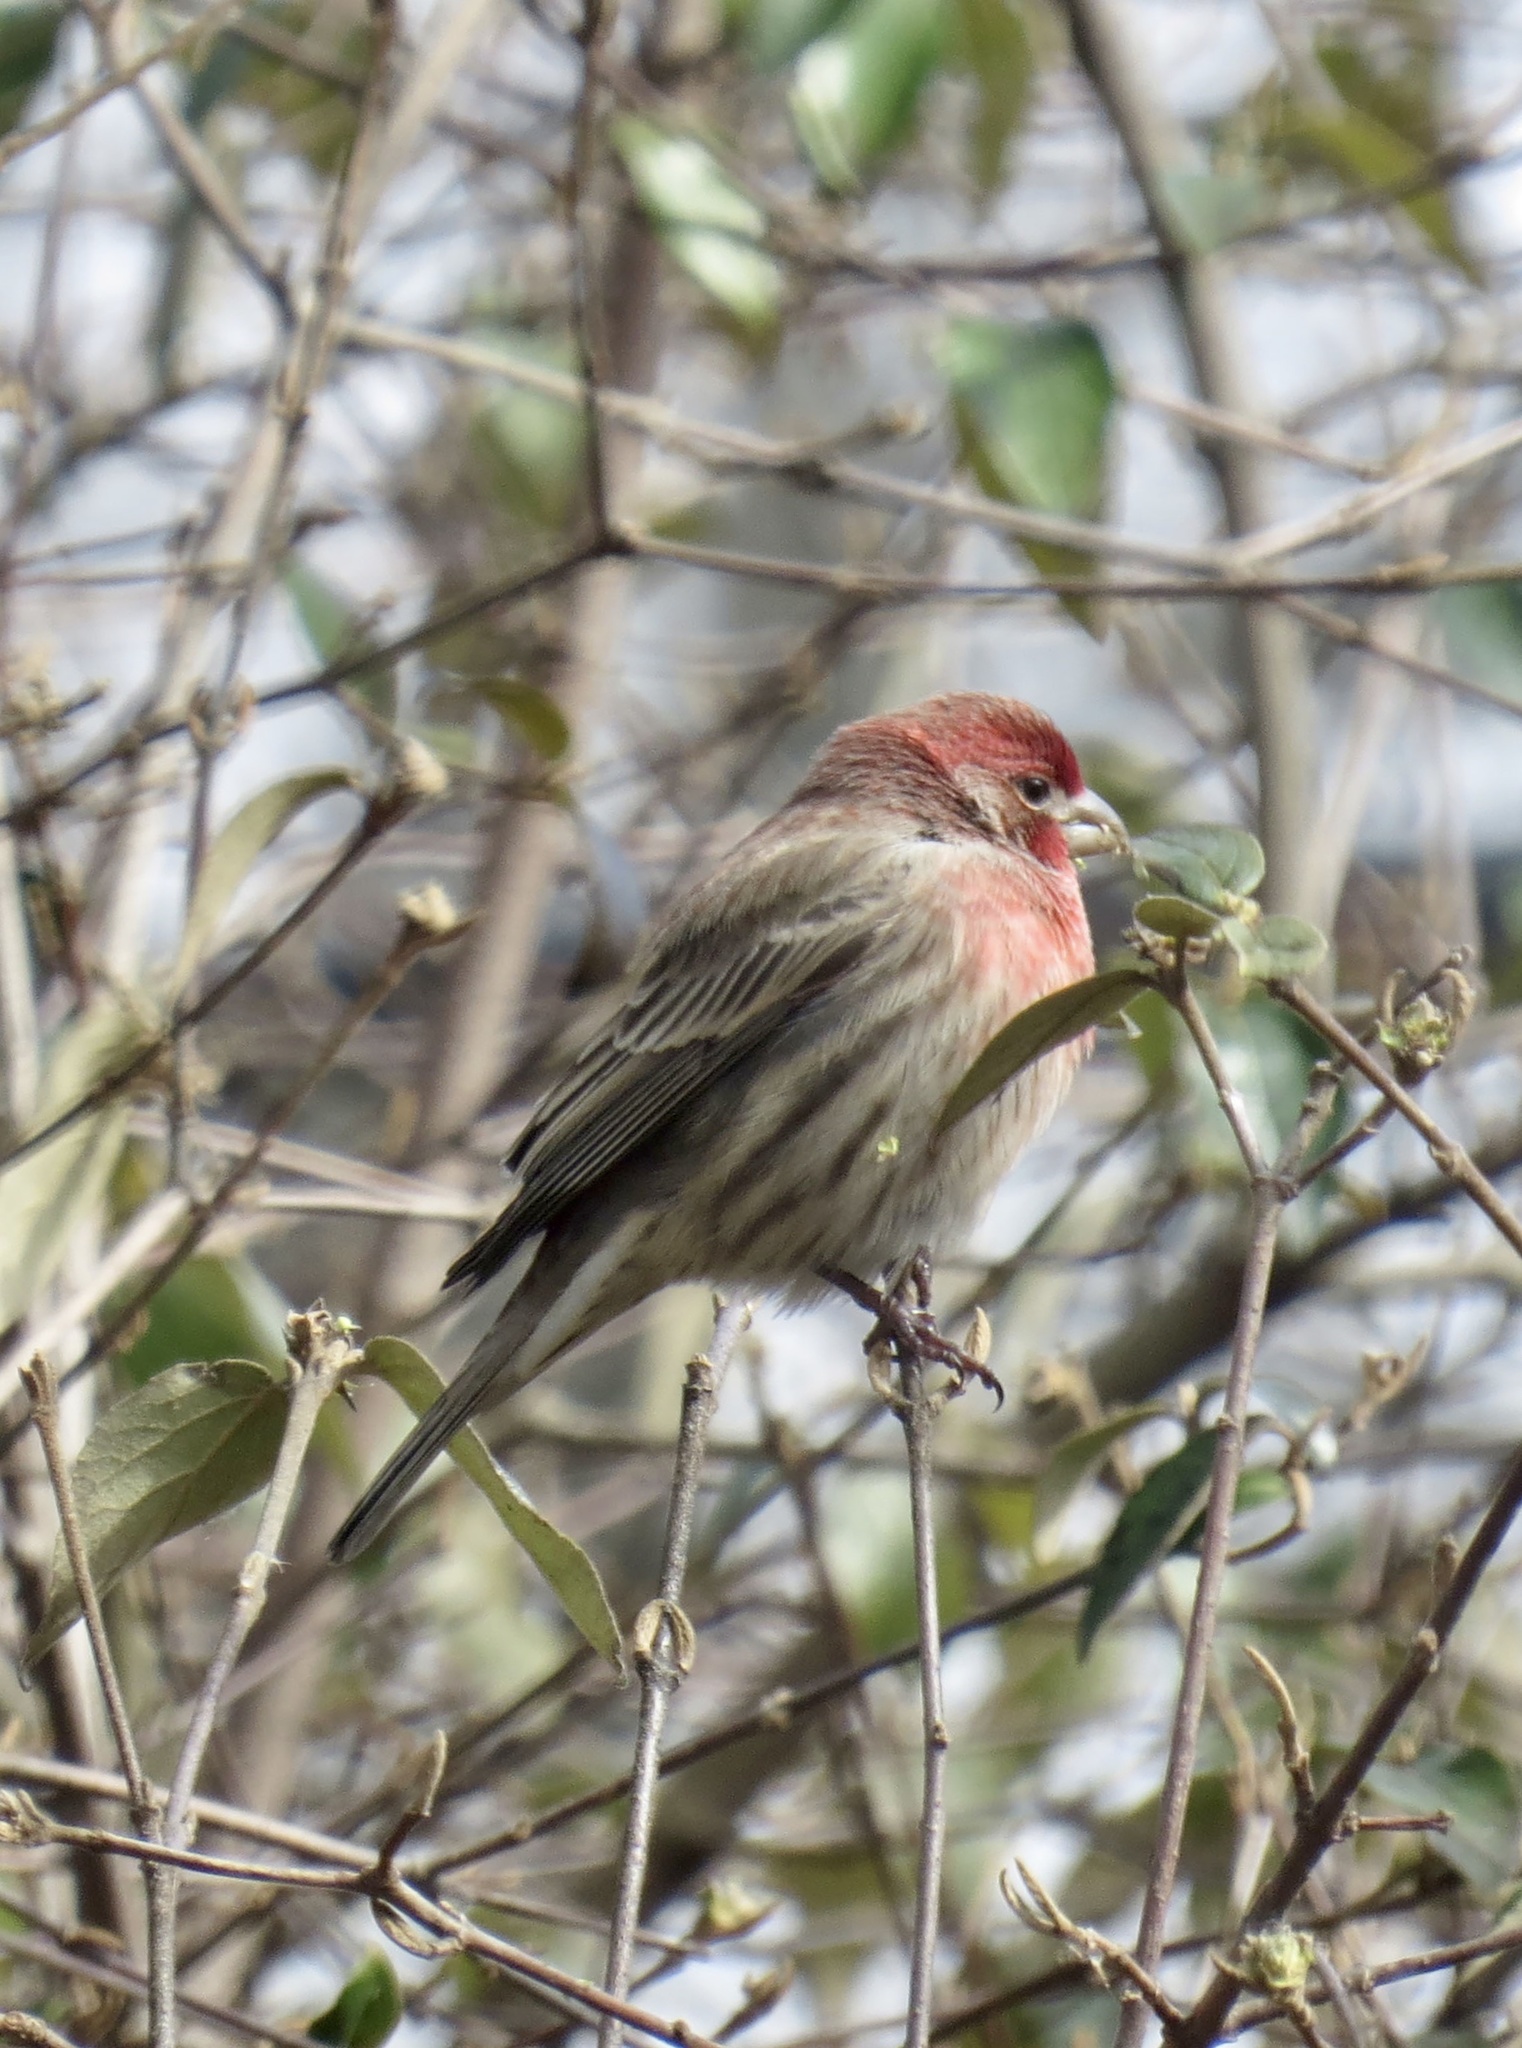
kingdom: Animalia
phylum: Chordata
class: Aves
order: Passeriformes
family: Fringillidae
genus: Haemorhous
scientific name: Haemorhous mexicanus
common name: House finch
